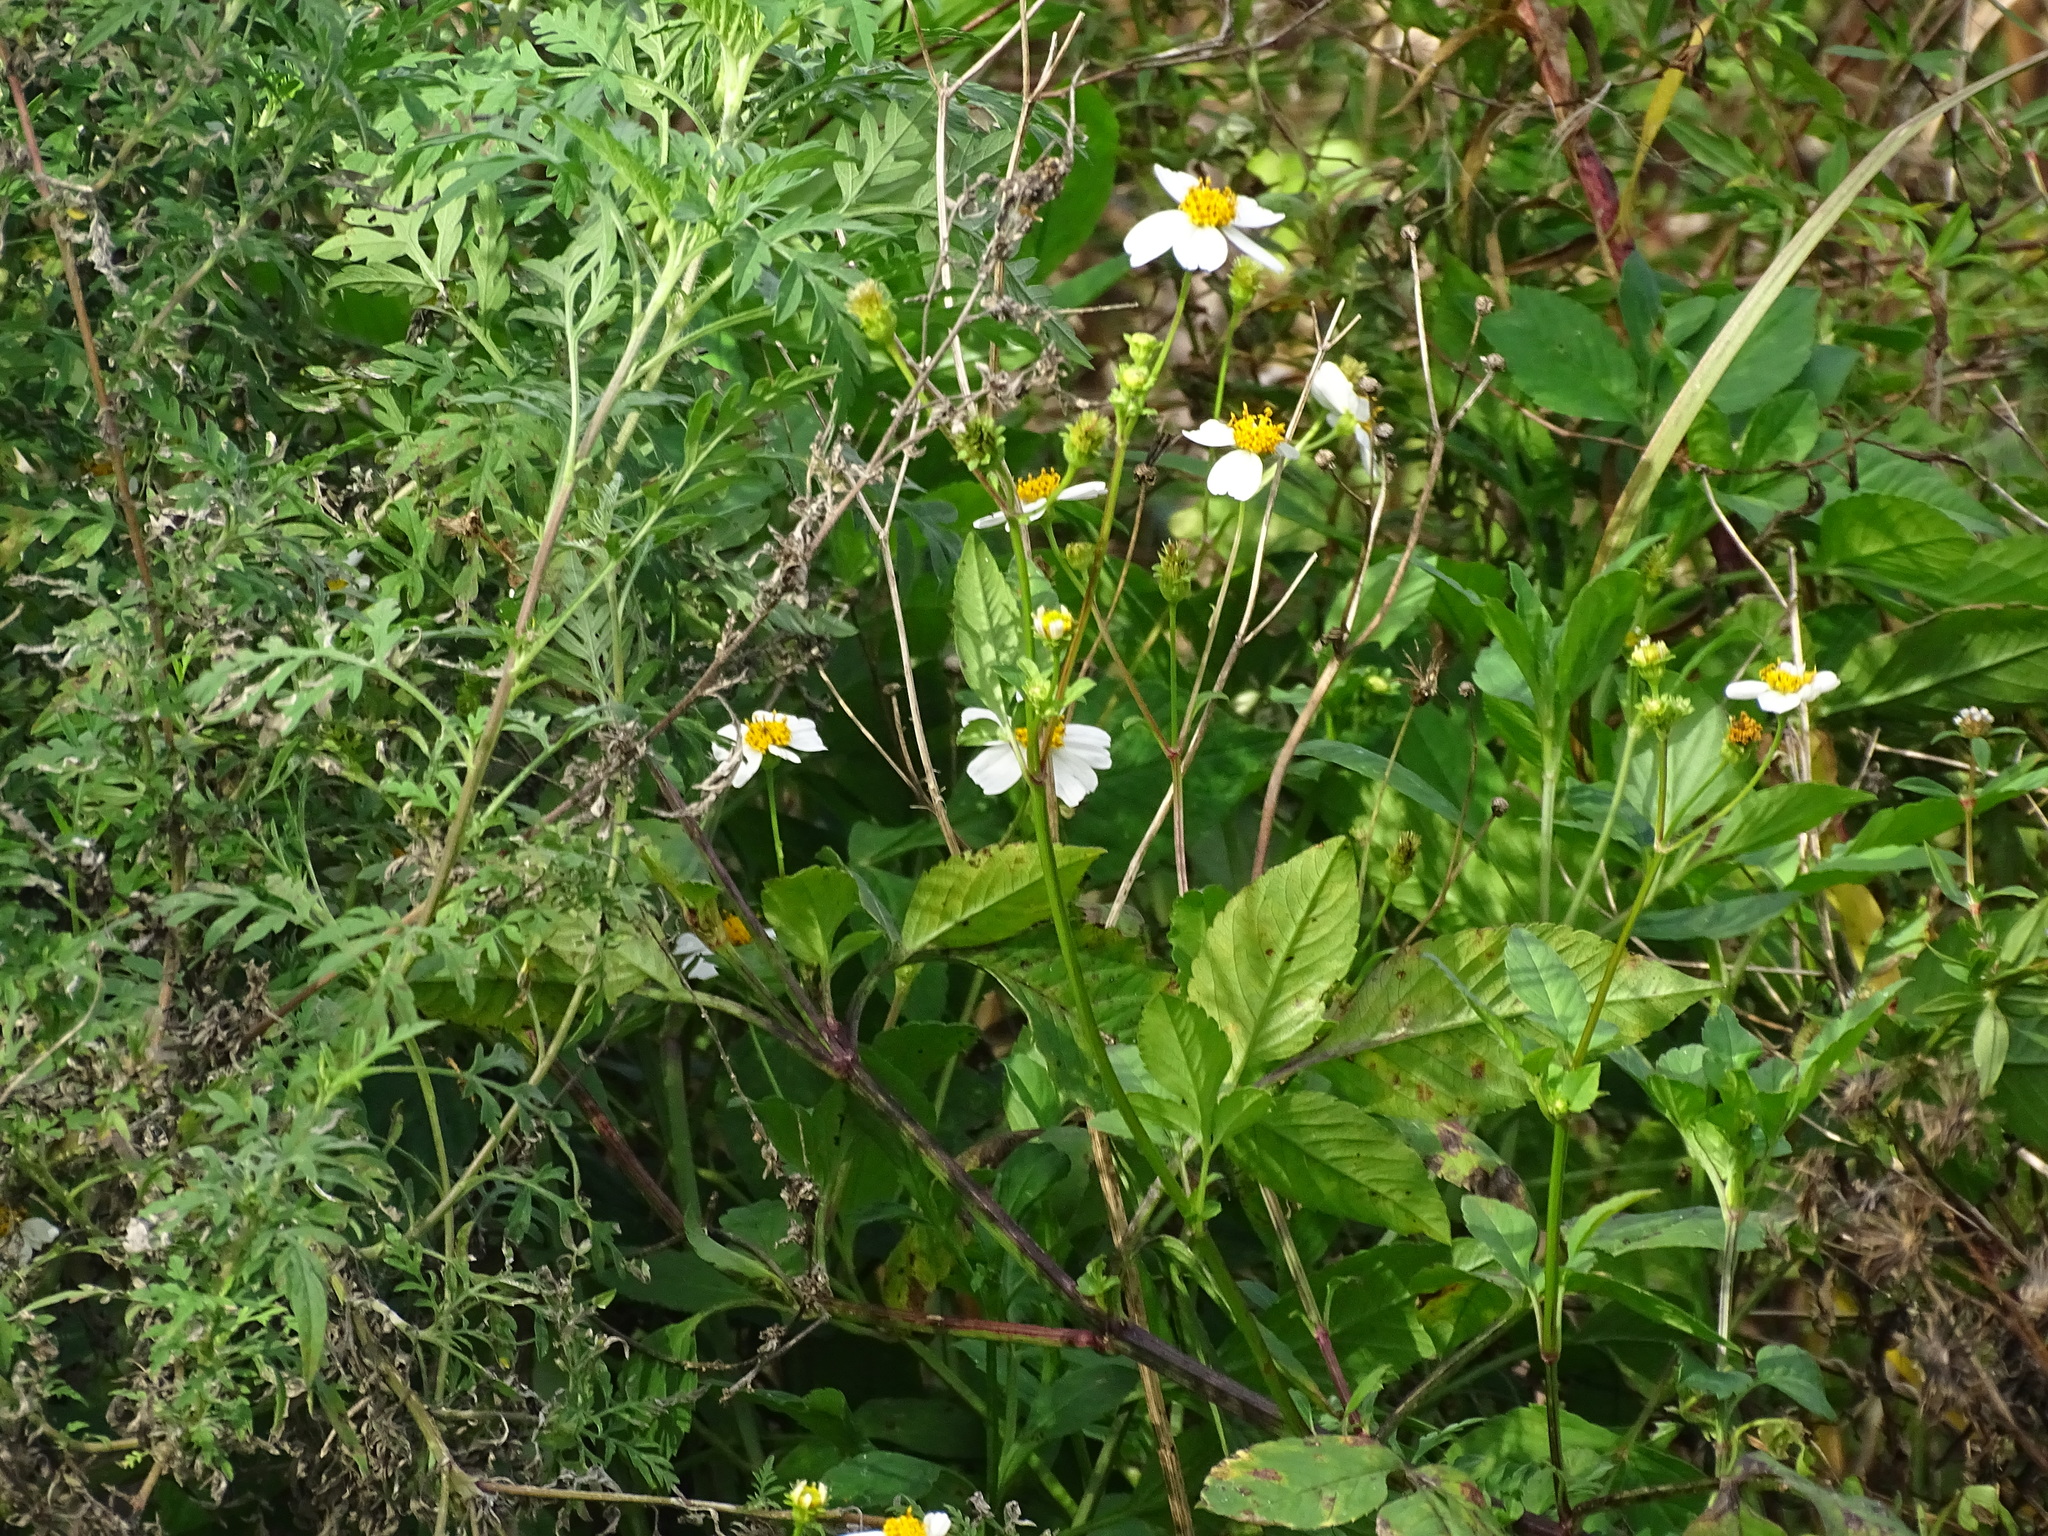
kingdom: Plantae
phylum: Tracheophyta
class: Magnoliopsida
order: Asterales
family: Asteraceae
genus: Bidens
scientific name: Bidens alba
